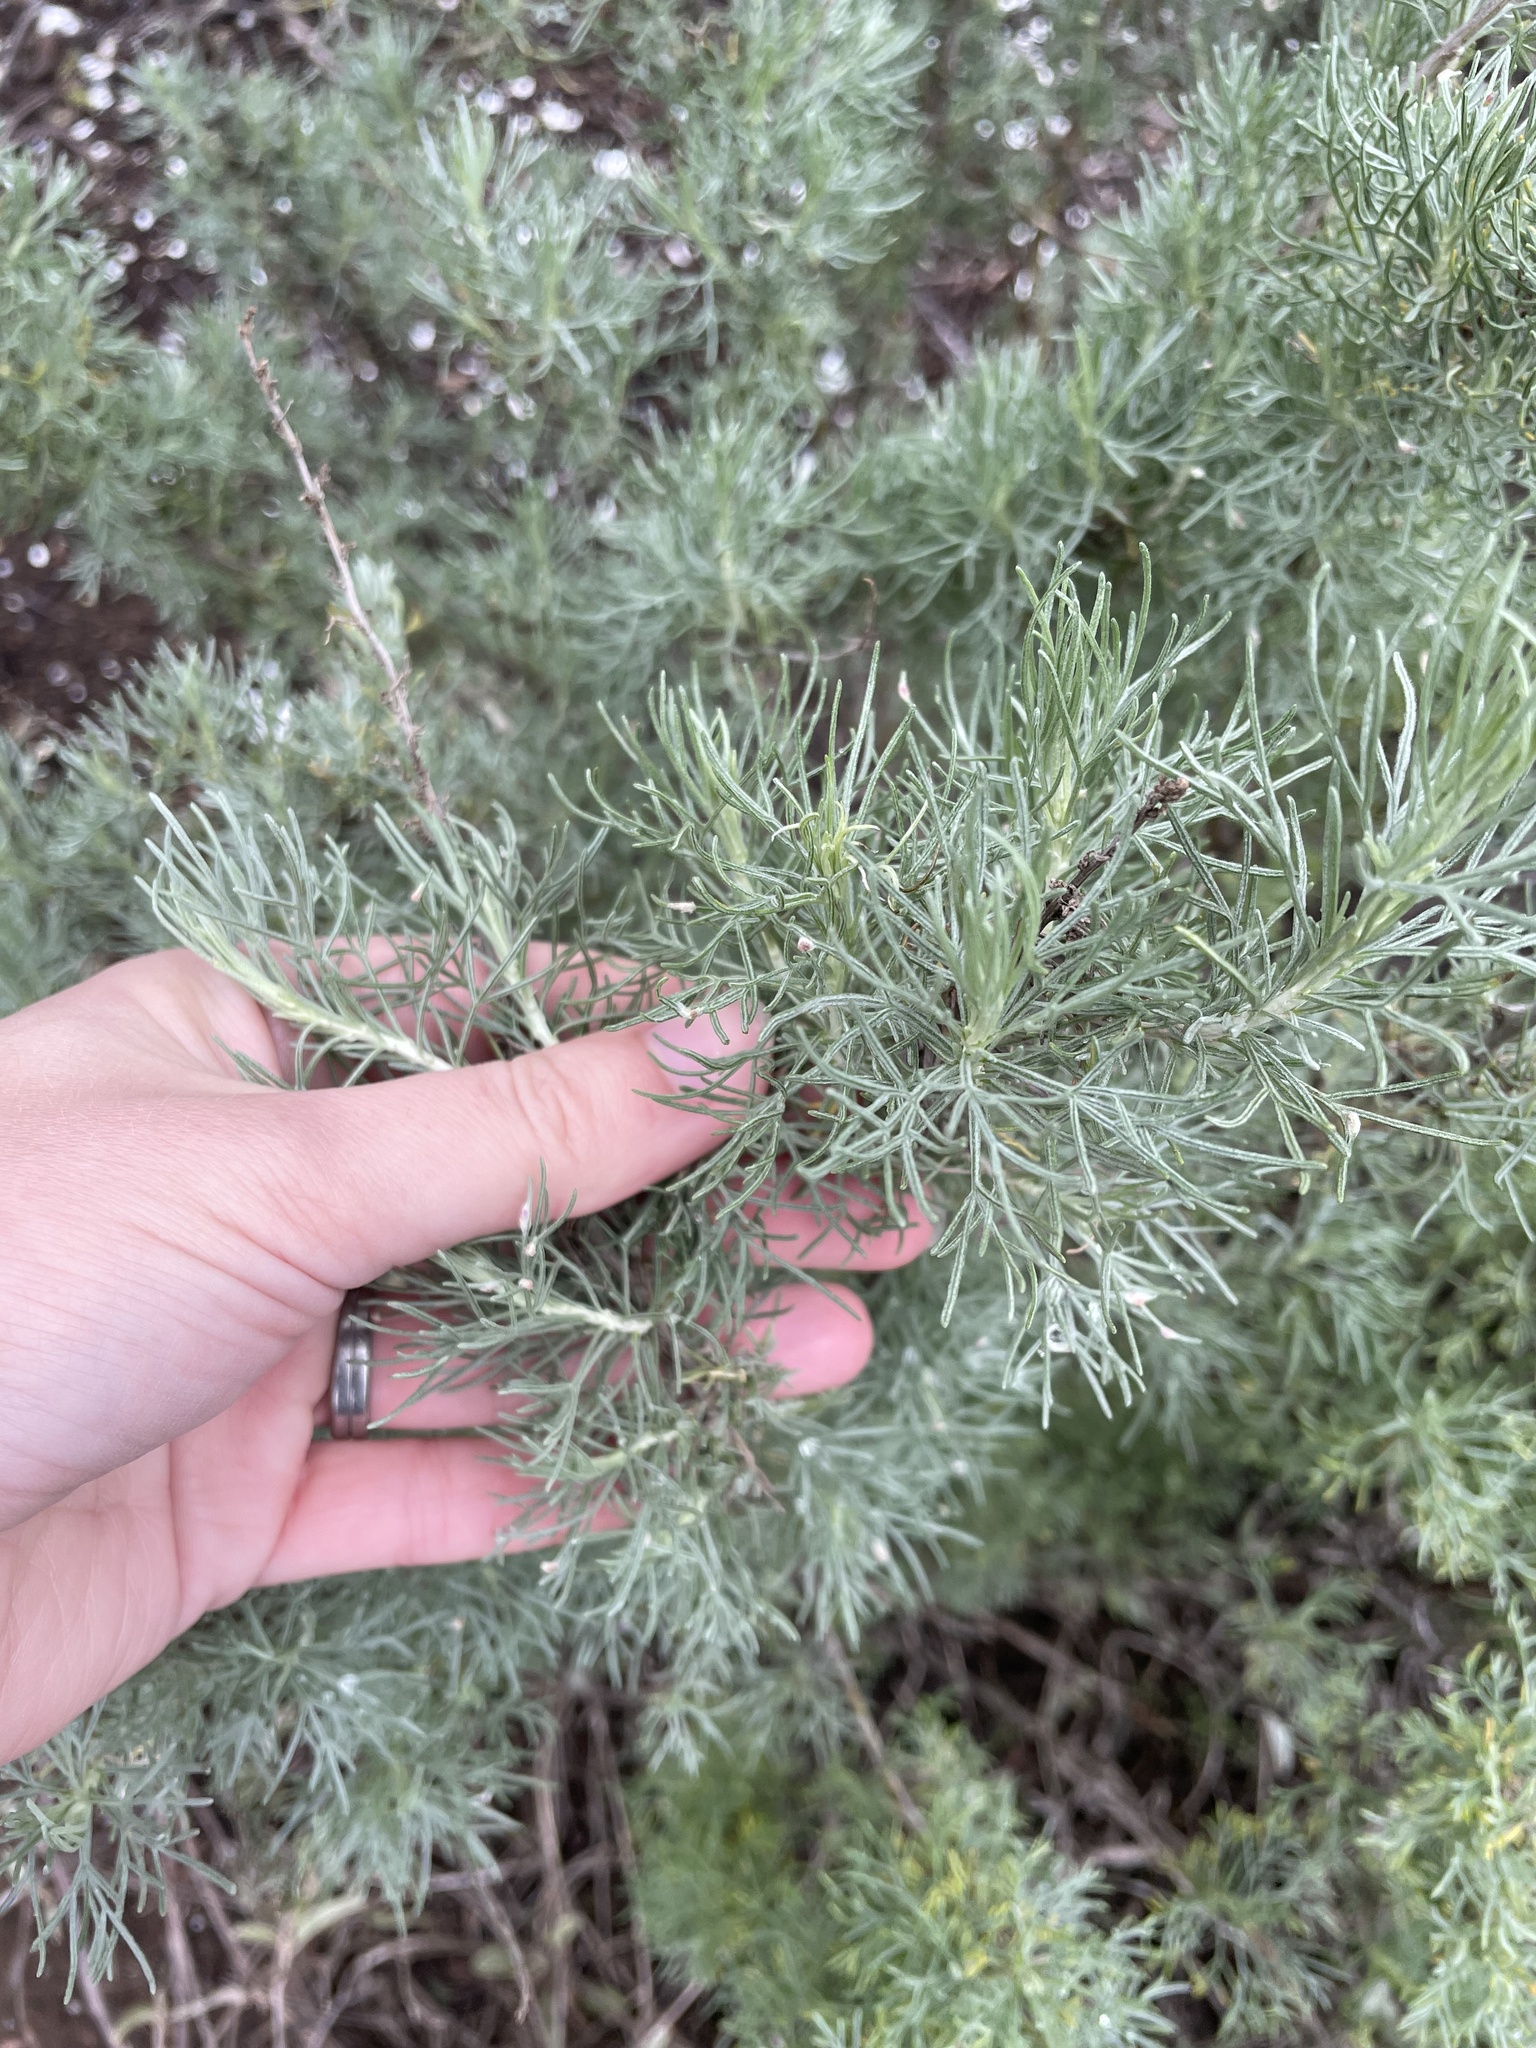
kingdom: Plantae
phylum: Tracheophyta
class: Magnoliopsida
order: Asterales
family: Asteraceae
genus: Artemisia
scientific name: Artemisia californica
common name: California sagebrush
